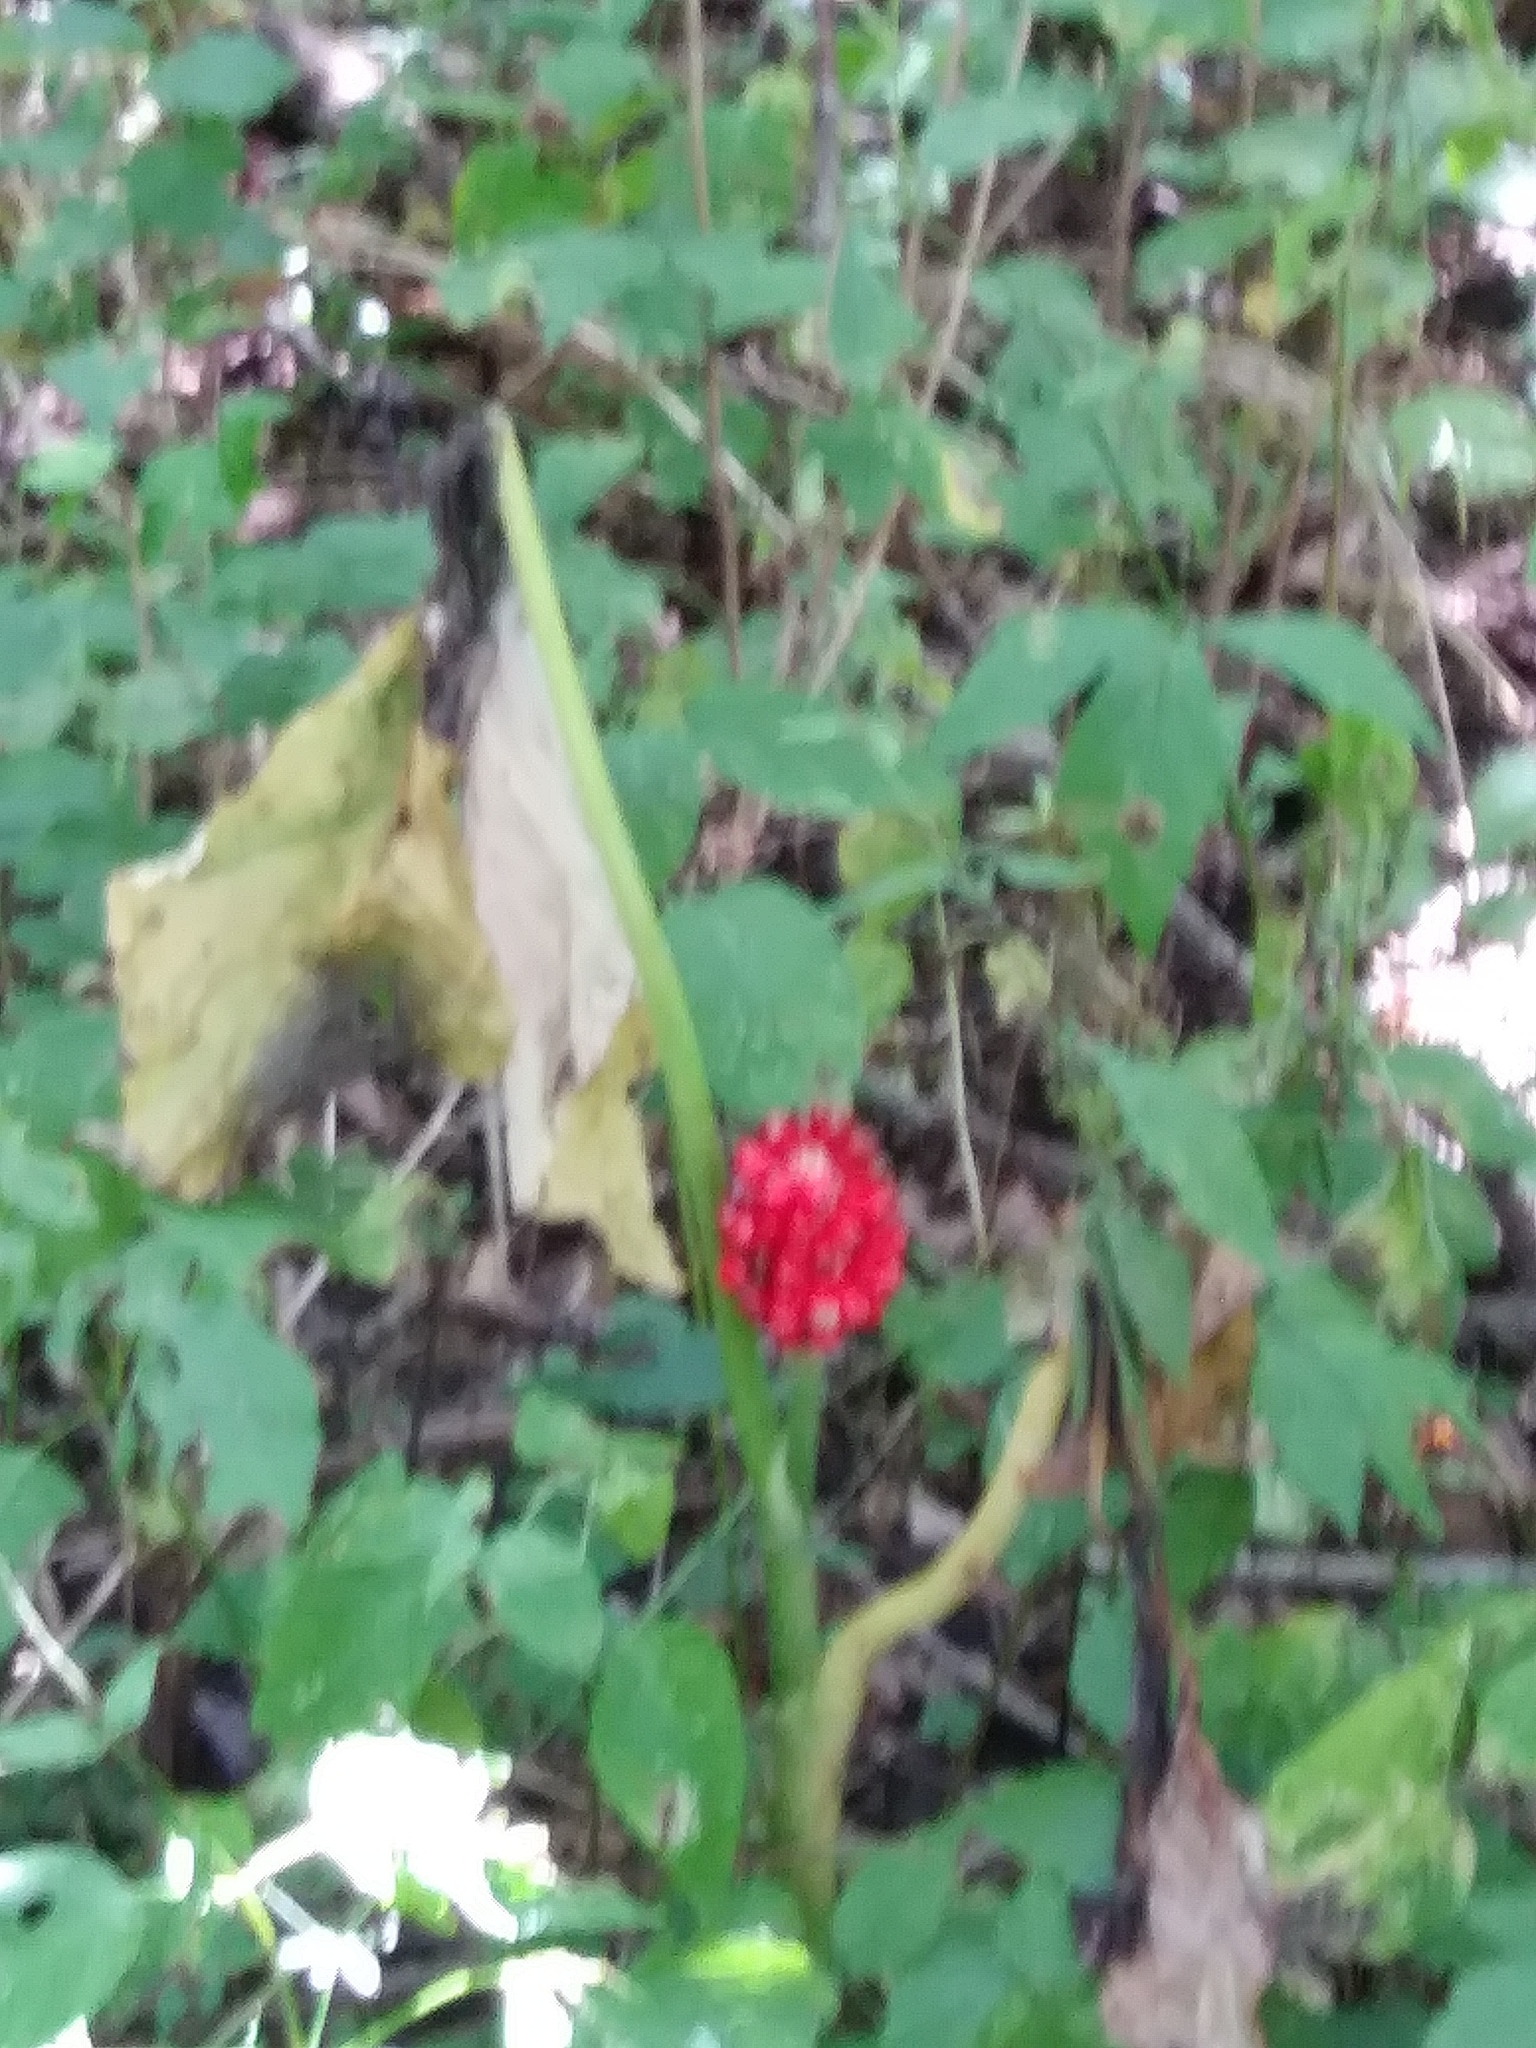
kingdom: Plantae
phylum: Tracheophyta
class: Liliopsida
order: Alismatales
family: Araceae
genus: Arisaema
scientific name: Arisaema triphyllum
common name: Jack-in-the-pulpit
